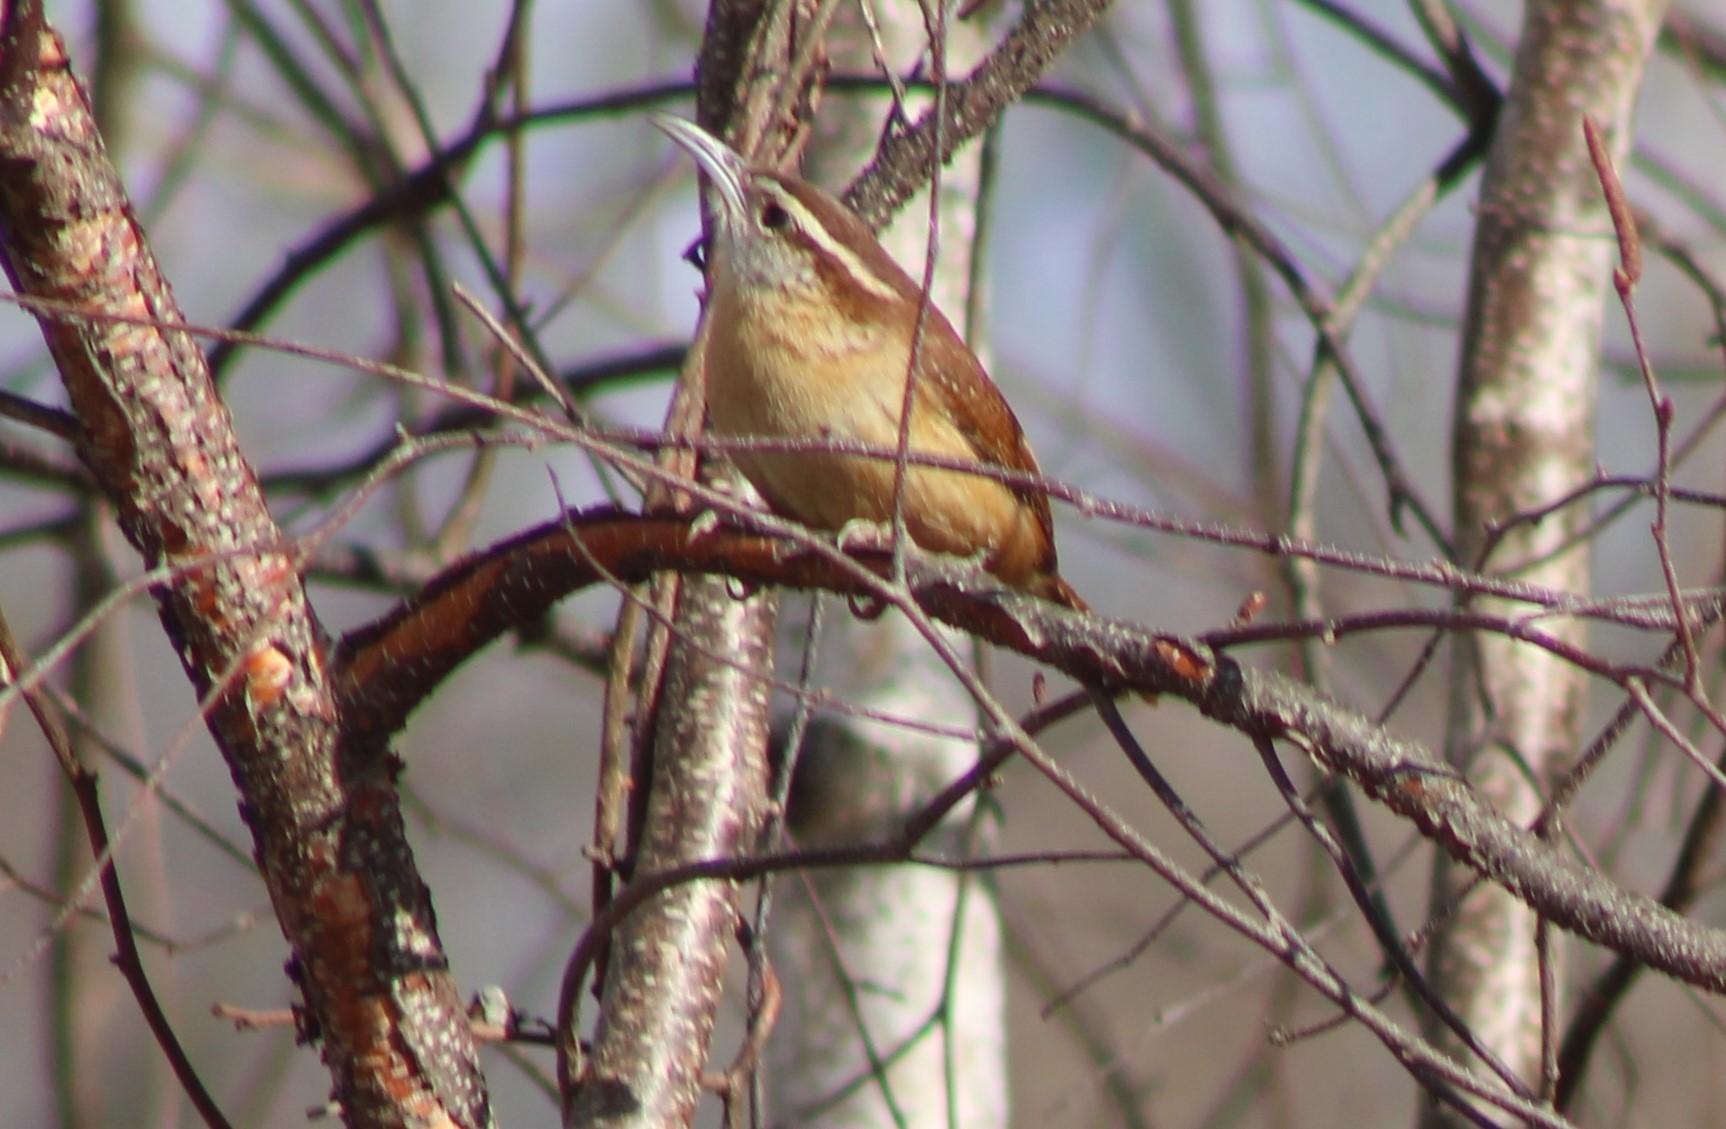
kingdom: Animalia
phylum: Chordata
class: Aves
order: Passeriformes
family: Troglodytidae
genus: Thryothorus
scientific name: Thryothorus ludovicianus
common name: Carolina wren
